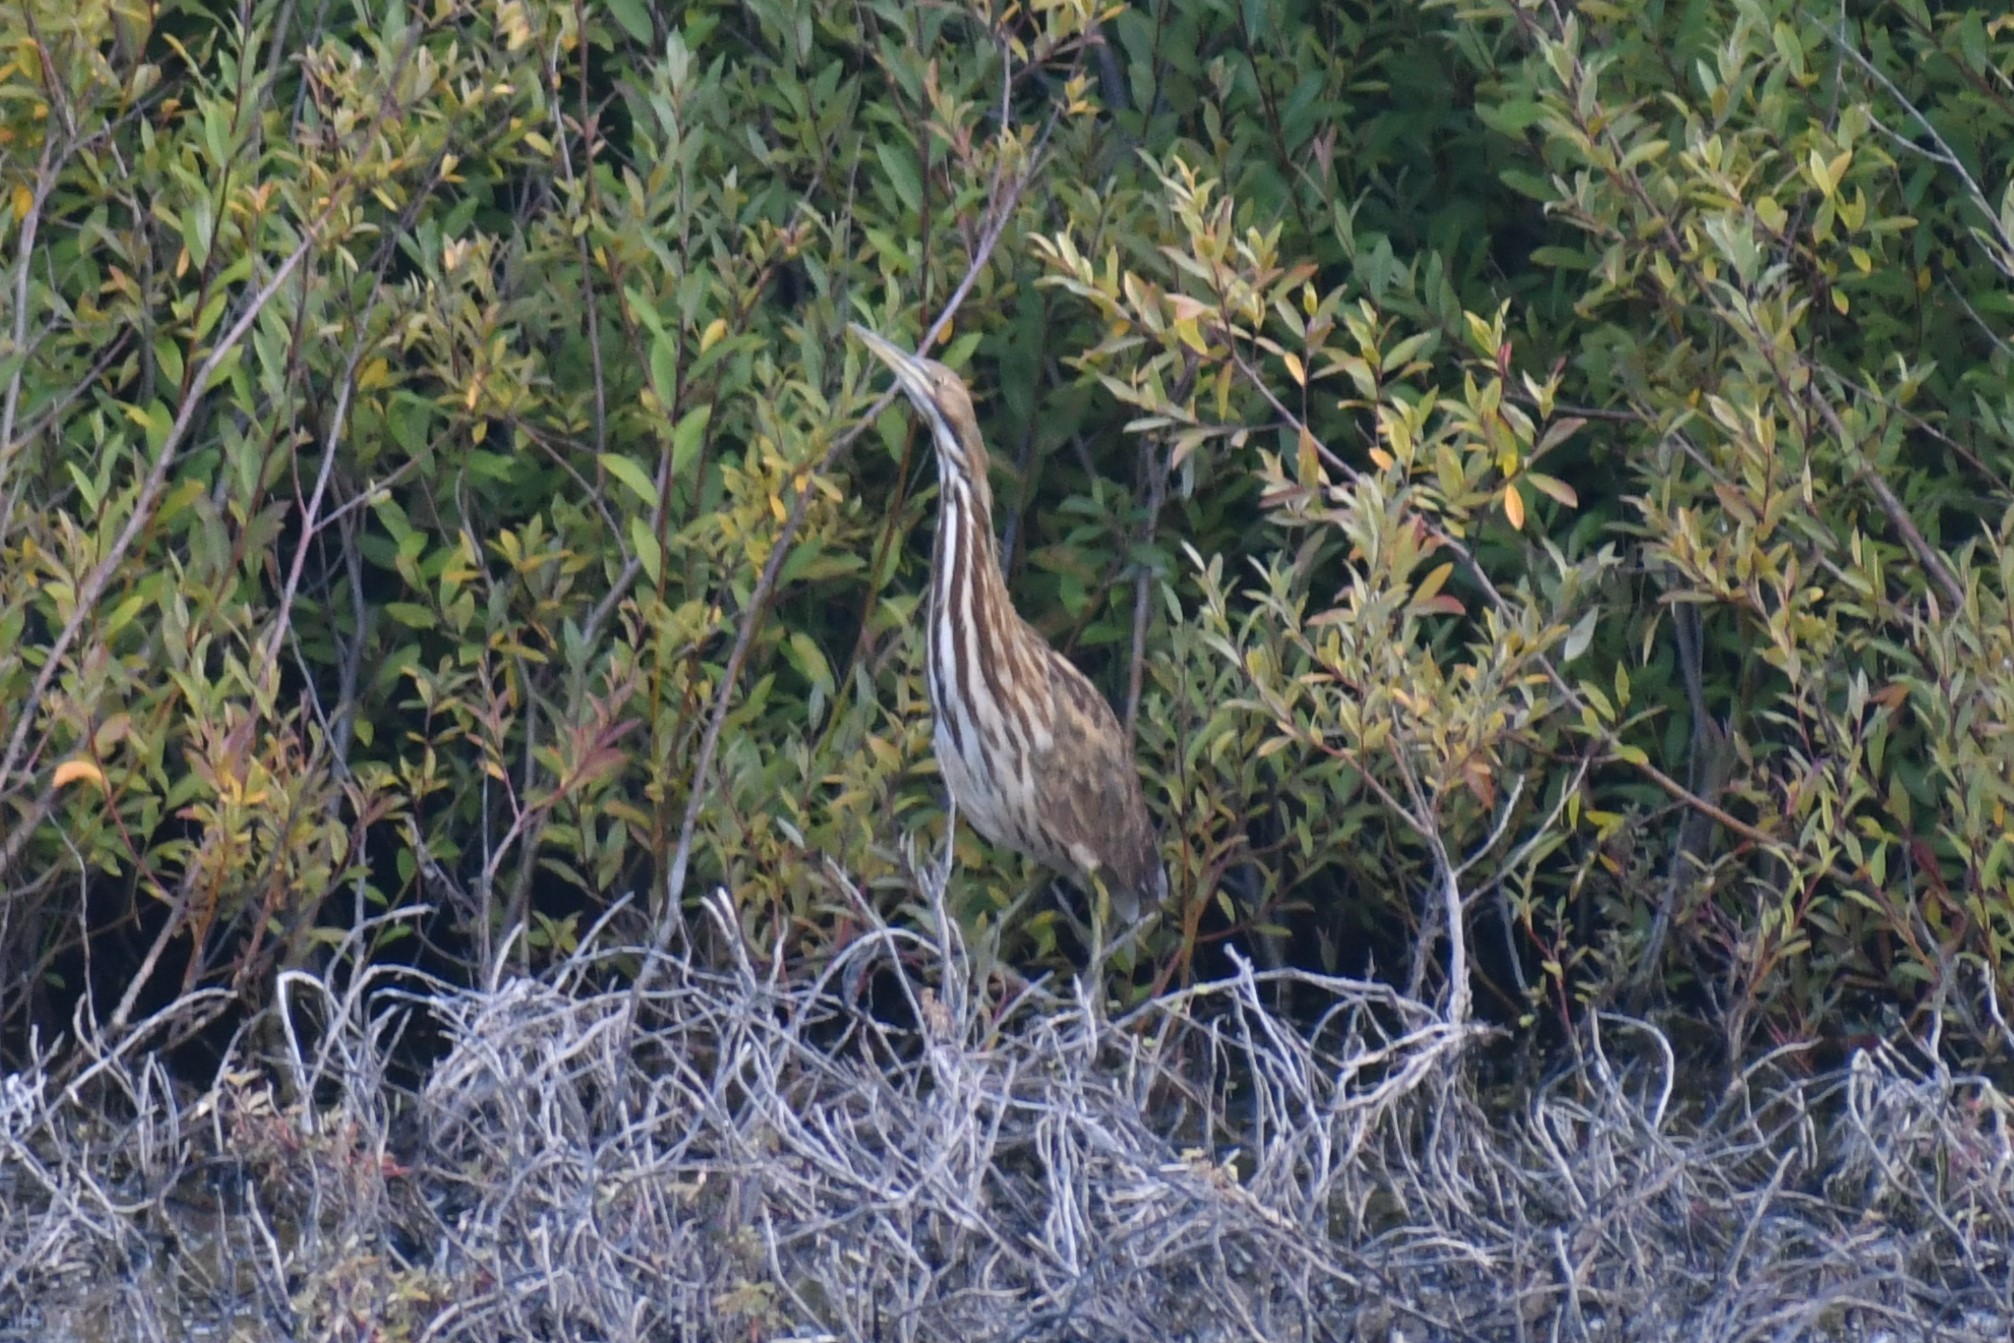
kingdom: Animalia
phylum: Chordata
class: Aves
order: Pelecaniformes
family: Ardeidae
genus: Botaurus
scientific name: Botaurus lentiginosus
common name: American bittern
